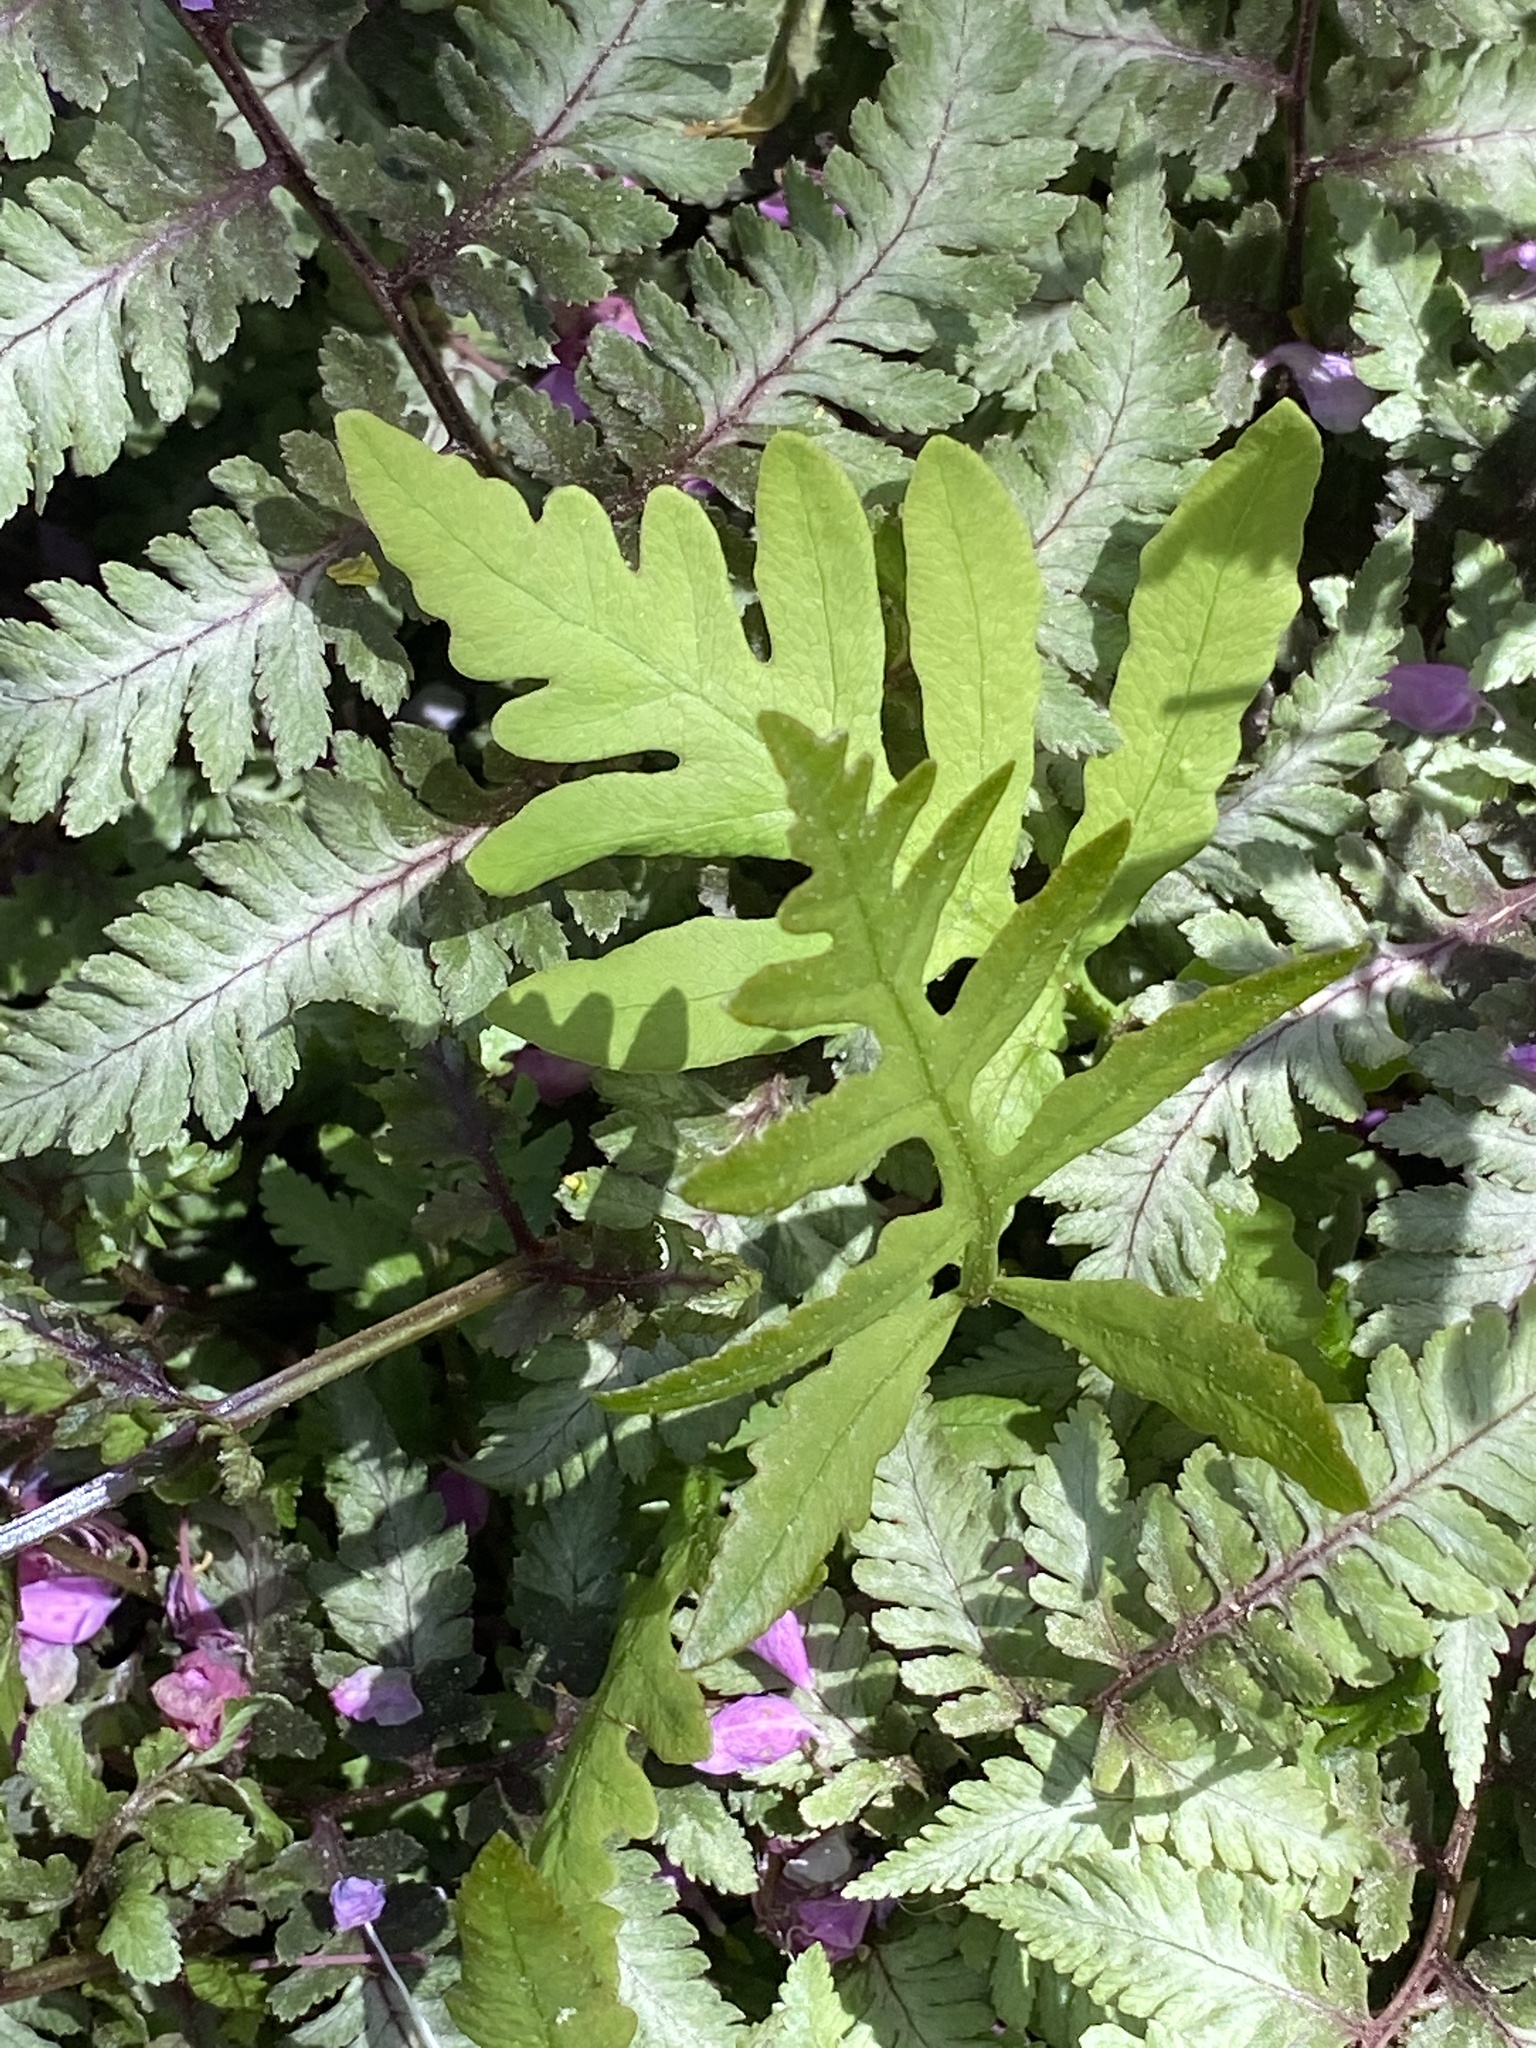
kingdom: Plantae
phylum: Tracheophyta
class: Polypodiopsida
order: Polypodiales
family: Onocleaceae
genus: Onoclea
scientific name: Onoclea sensibilis
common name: Sensitive fern
